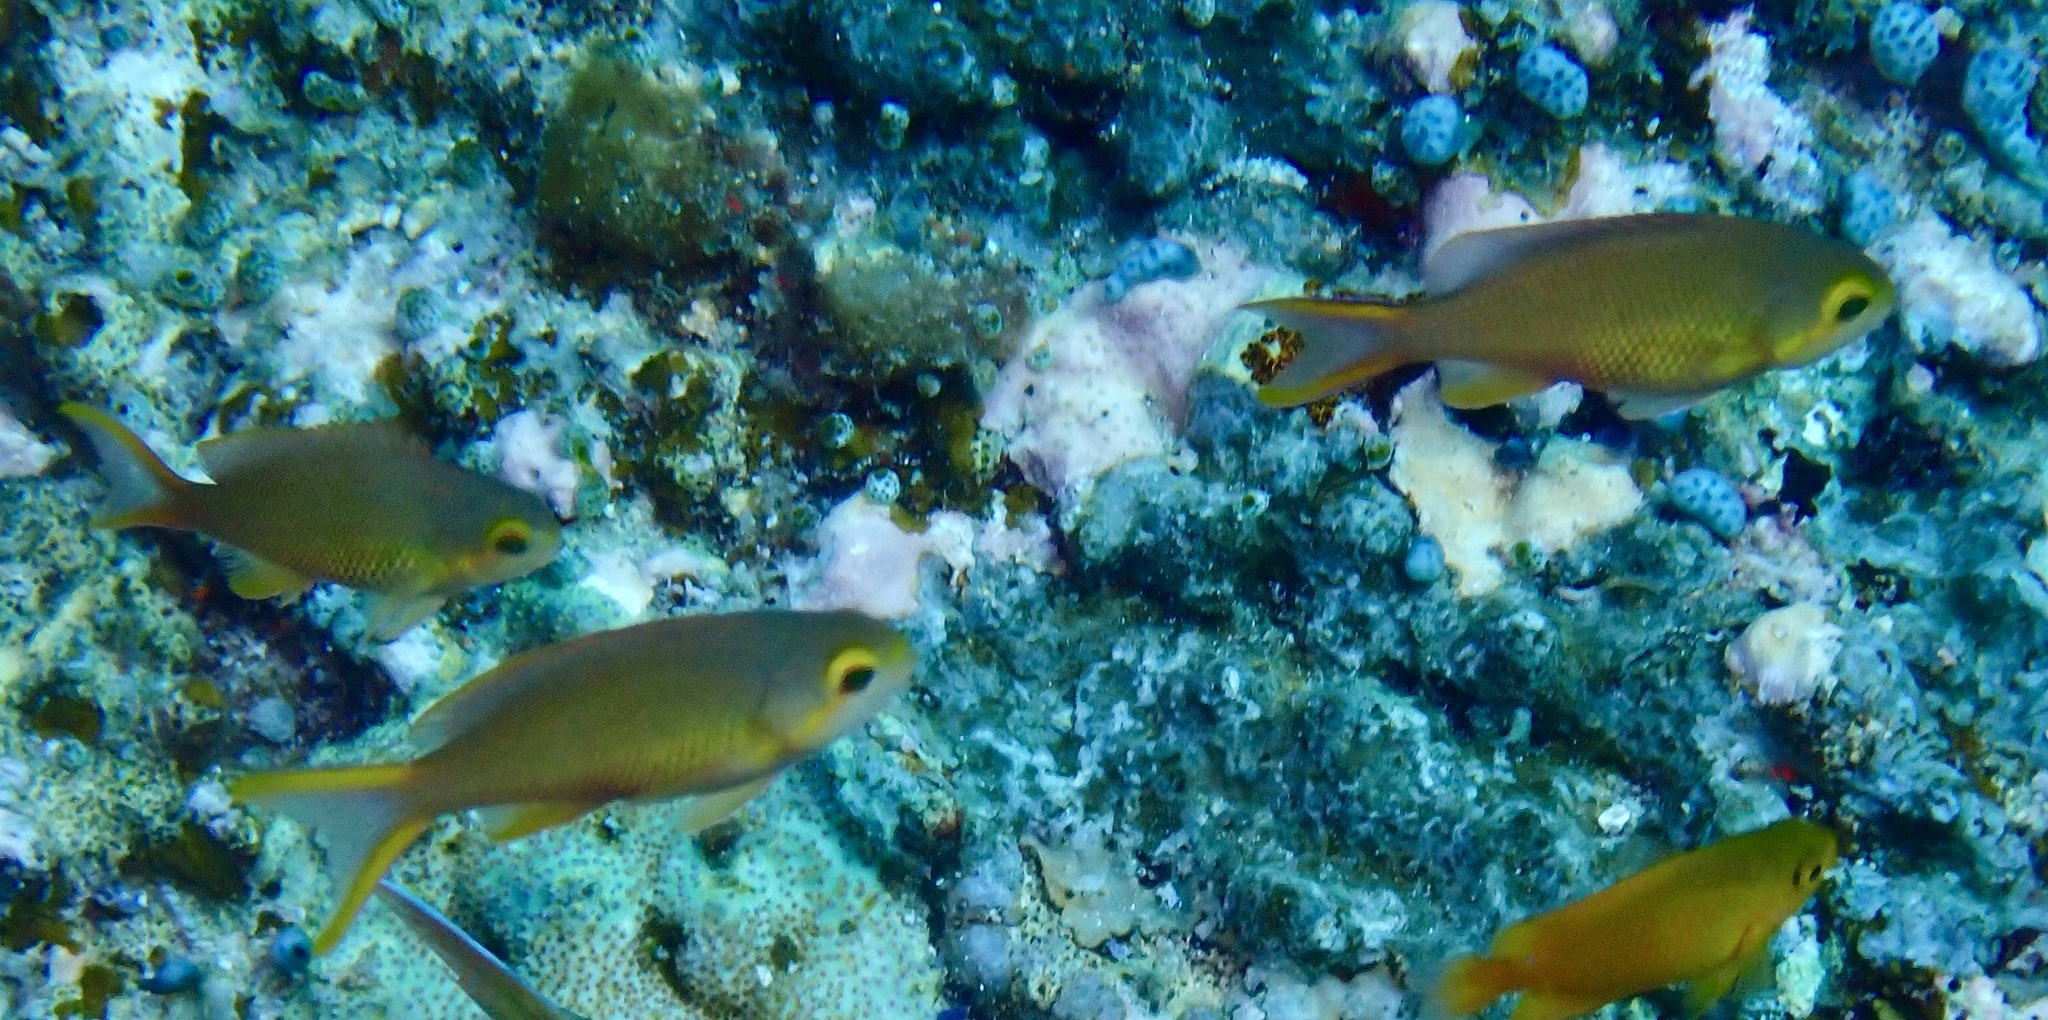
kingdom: Animalia
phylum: Chordata
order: Perciformes
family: Serranidae
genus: Pseudanthias
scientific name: Pseudanthias huchtii
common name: Pacific basslet
